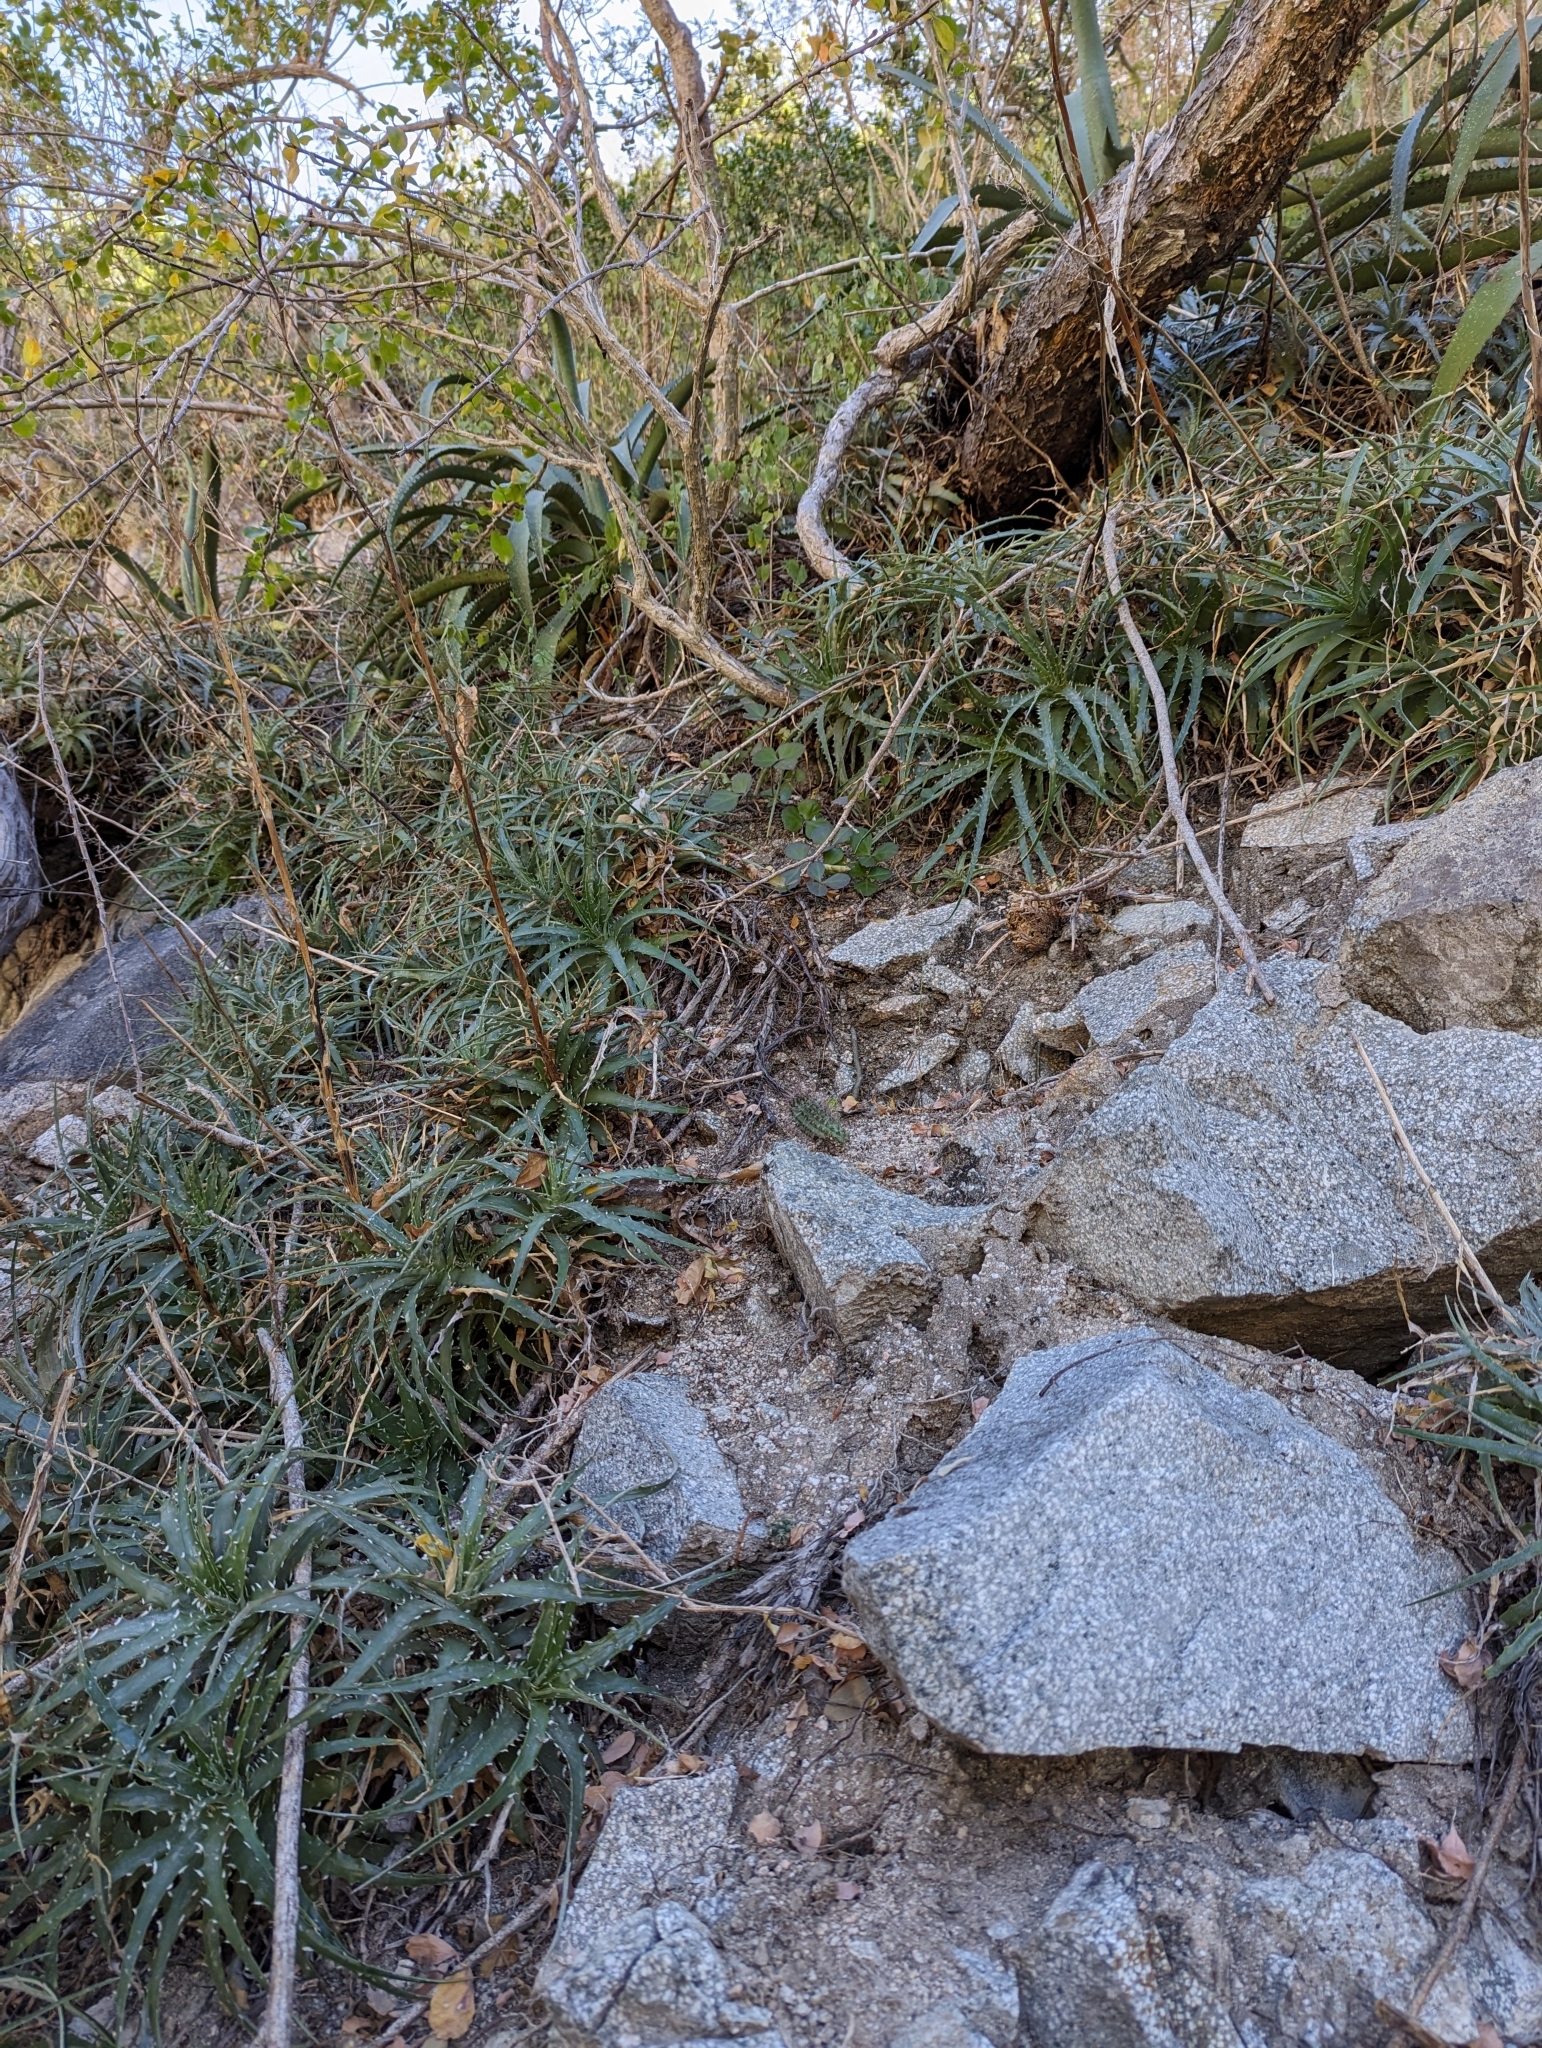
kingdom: Plantae
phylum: Tracheophyta
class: Liliopsida
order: Poales
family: Bromeliaceae
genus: Hechtia
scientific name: Hechtia montana
